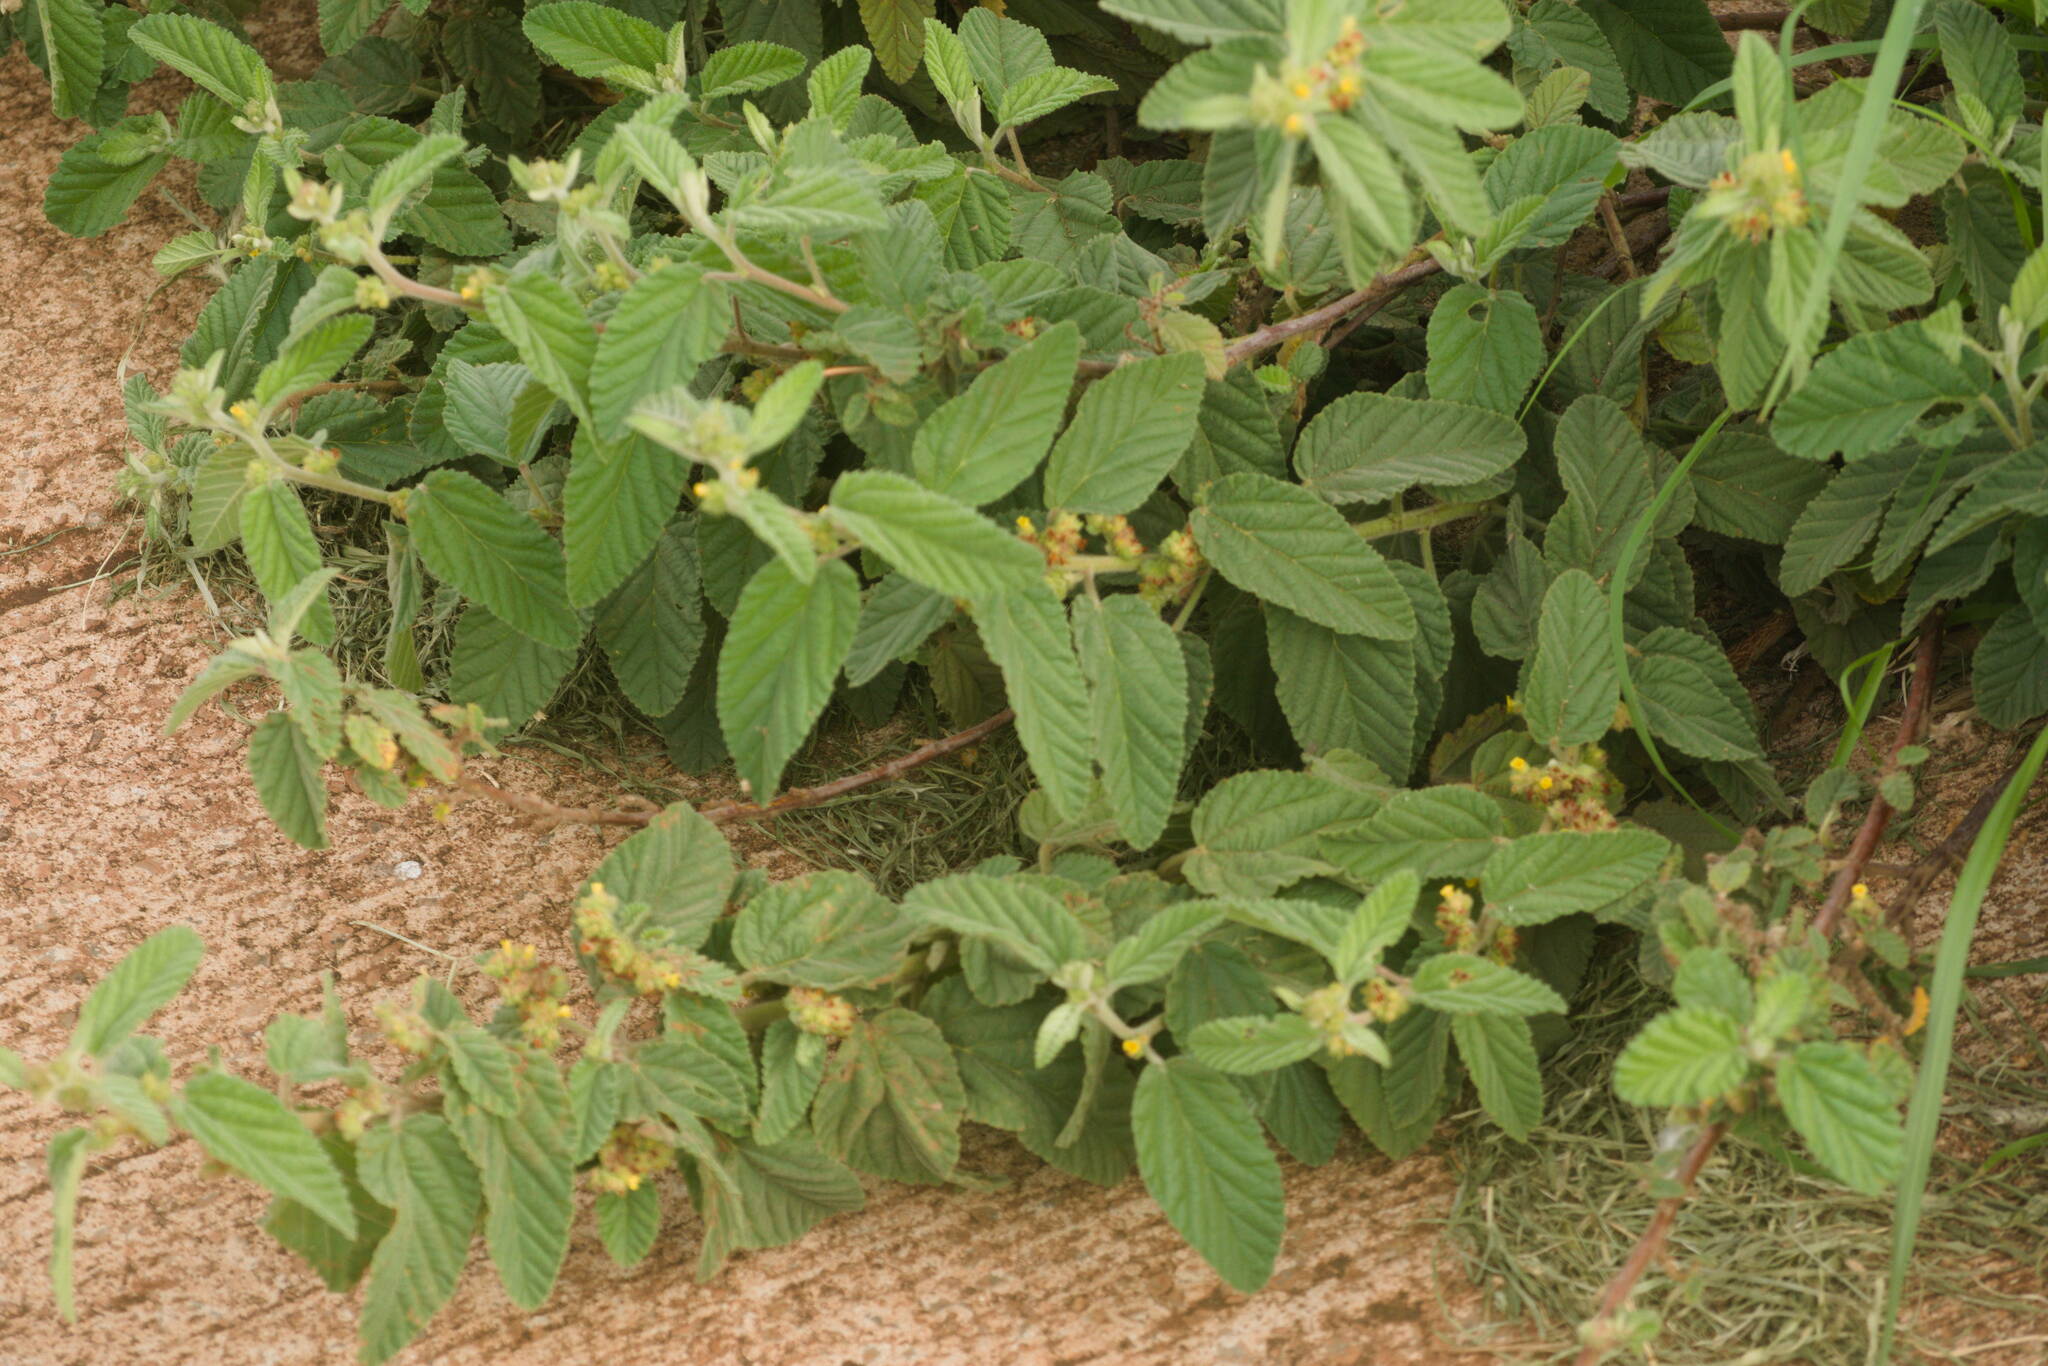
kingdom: Plantae
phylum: Tracheophyta
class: Magnoliopsida
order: Malvales
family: Malvaceae
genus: Waltheria
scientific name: Waltheria indica
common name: Leather-coat
